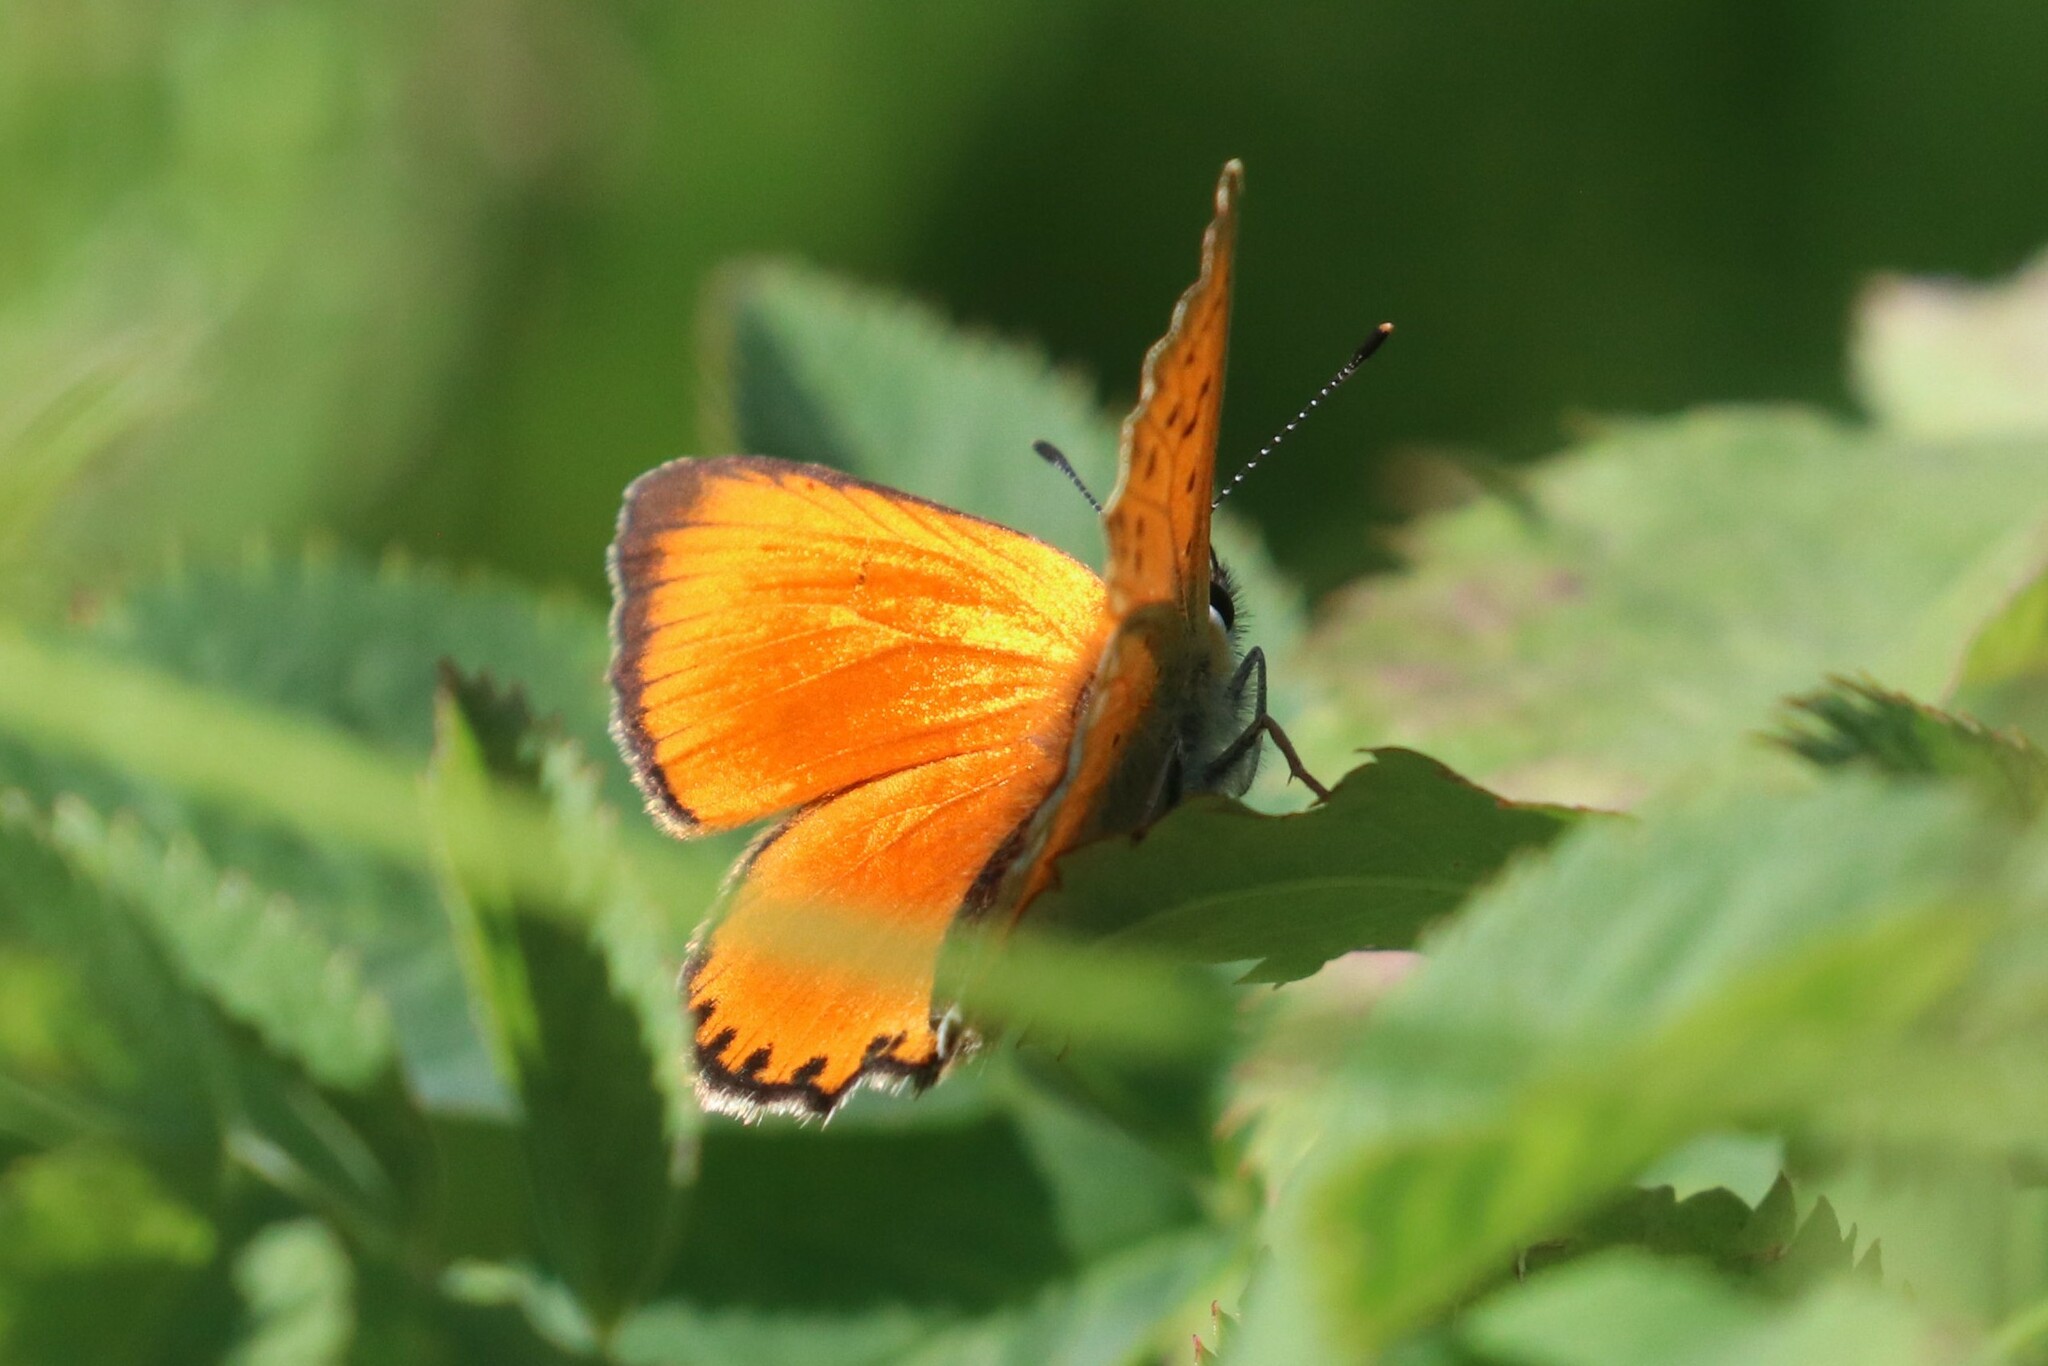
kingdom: Animalia
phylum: Arthropoda
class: Insecta
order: Lepidoptera
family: Lycaenidae
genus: Lycaena
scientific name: Lycaena virgaureae
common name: Scarce copper
